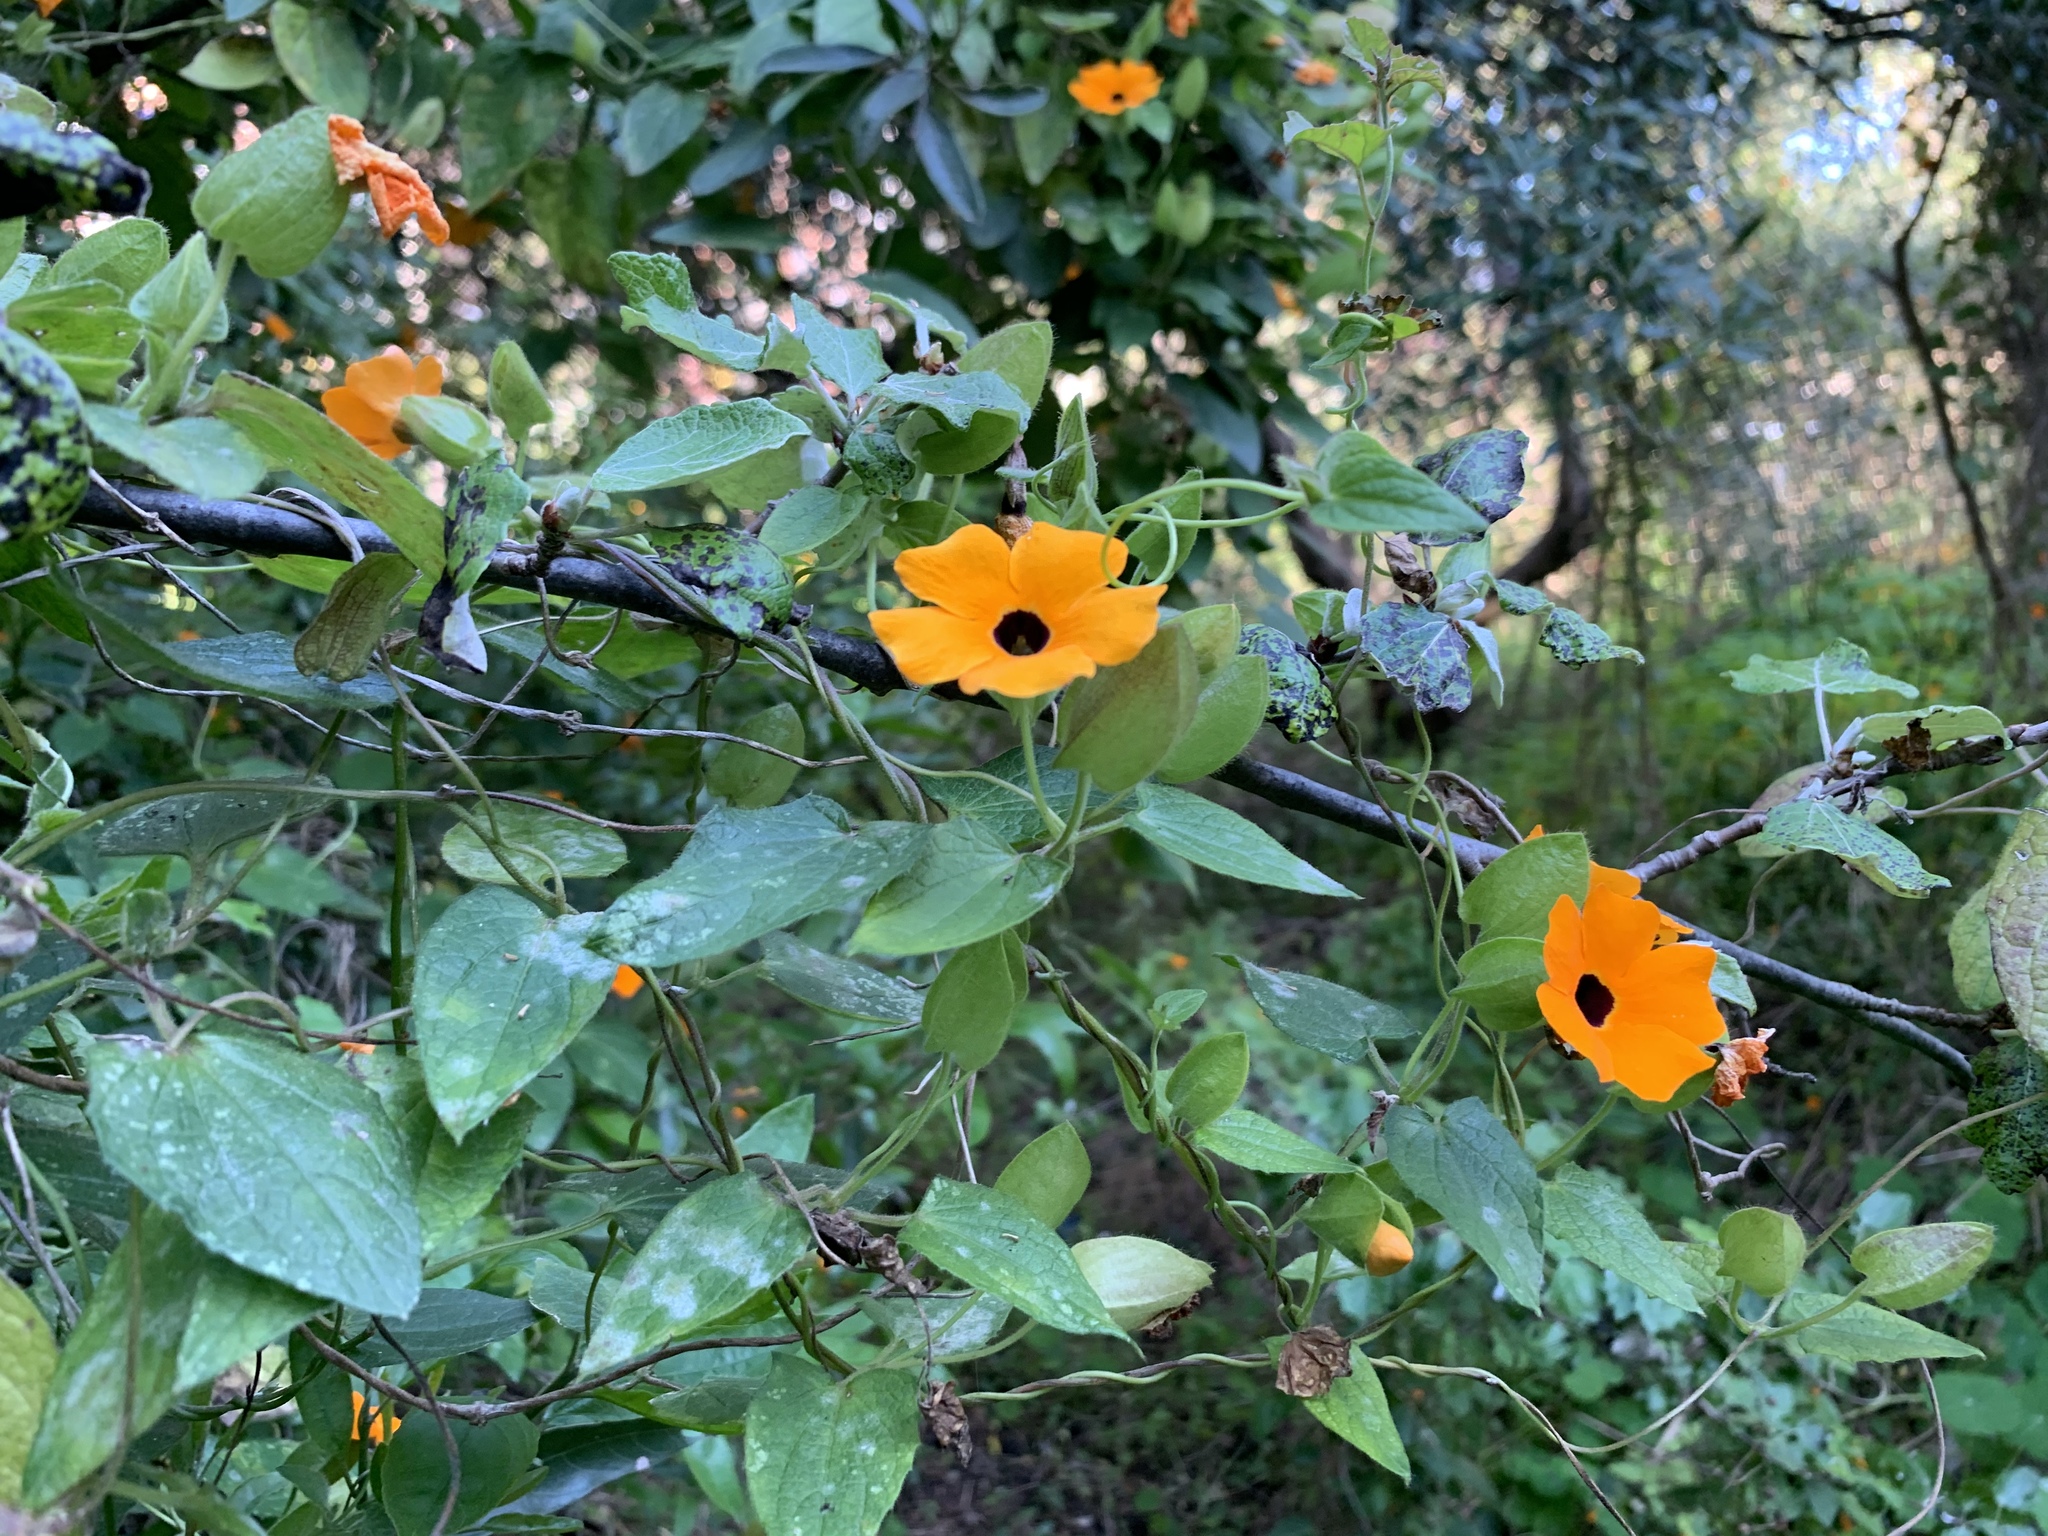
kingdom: Plantae
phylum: Tracheophyta
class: Magnoliopsida
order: Lamiales
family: Acanthaceae
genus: Thunbergia
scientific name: Thunbergia alata
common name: Blackeyed susan vine
